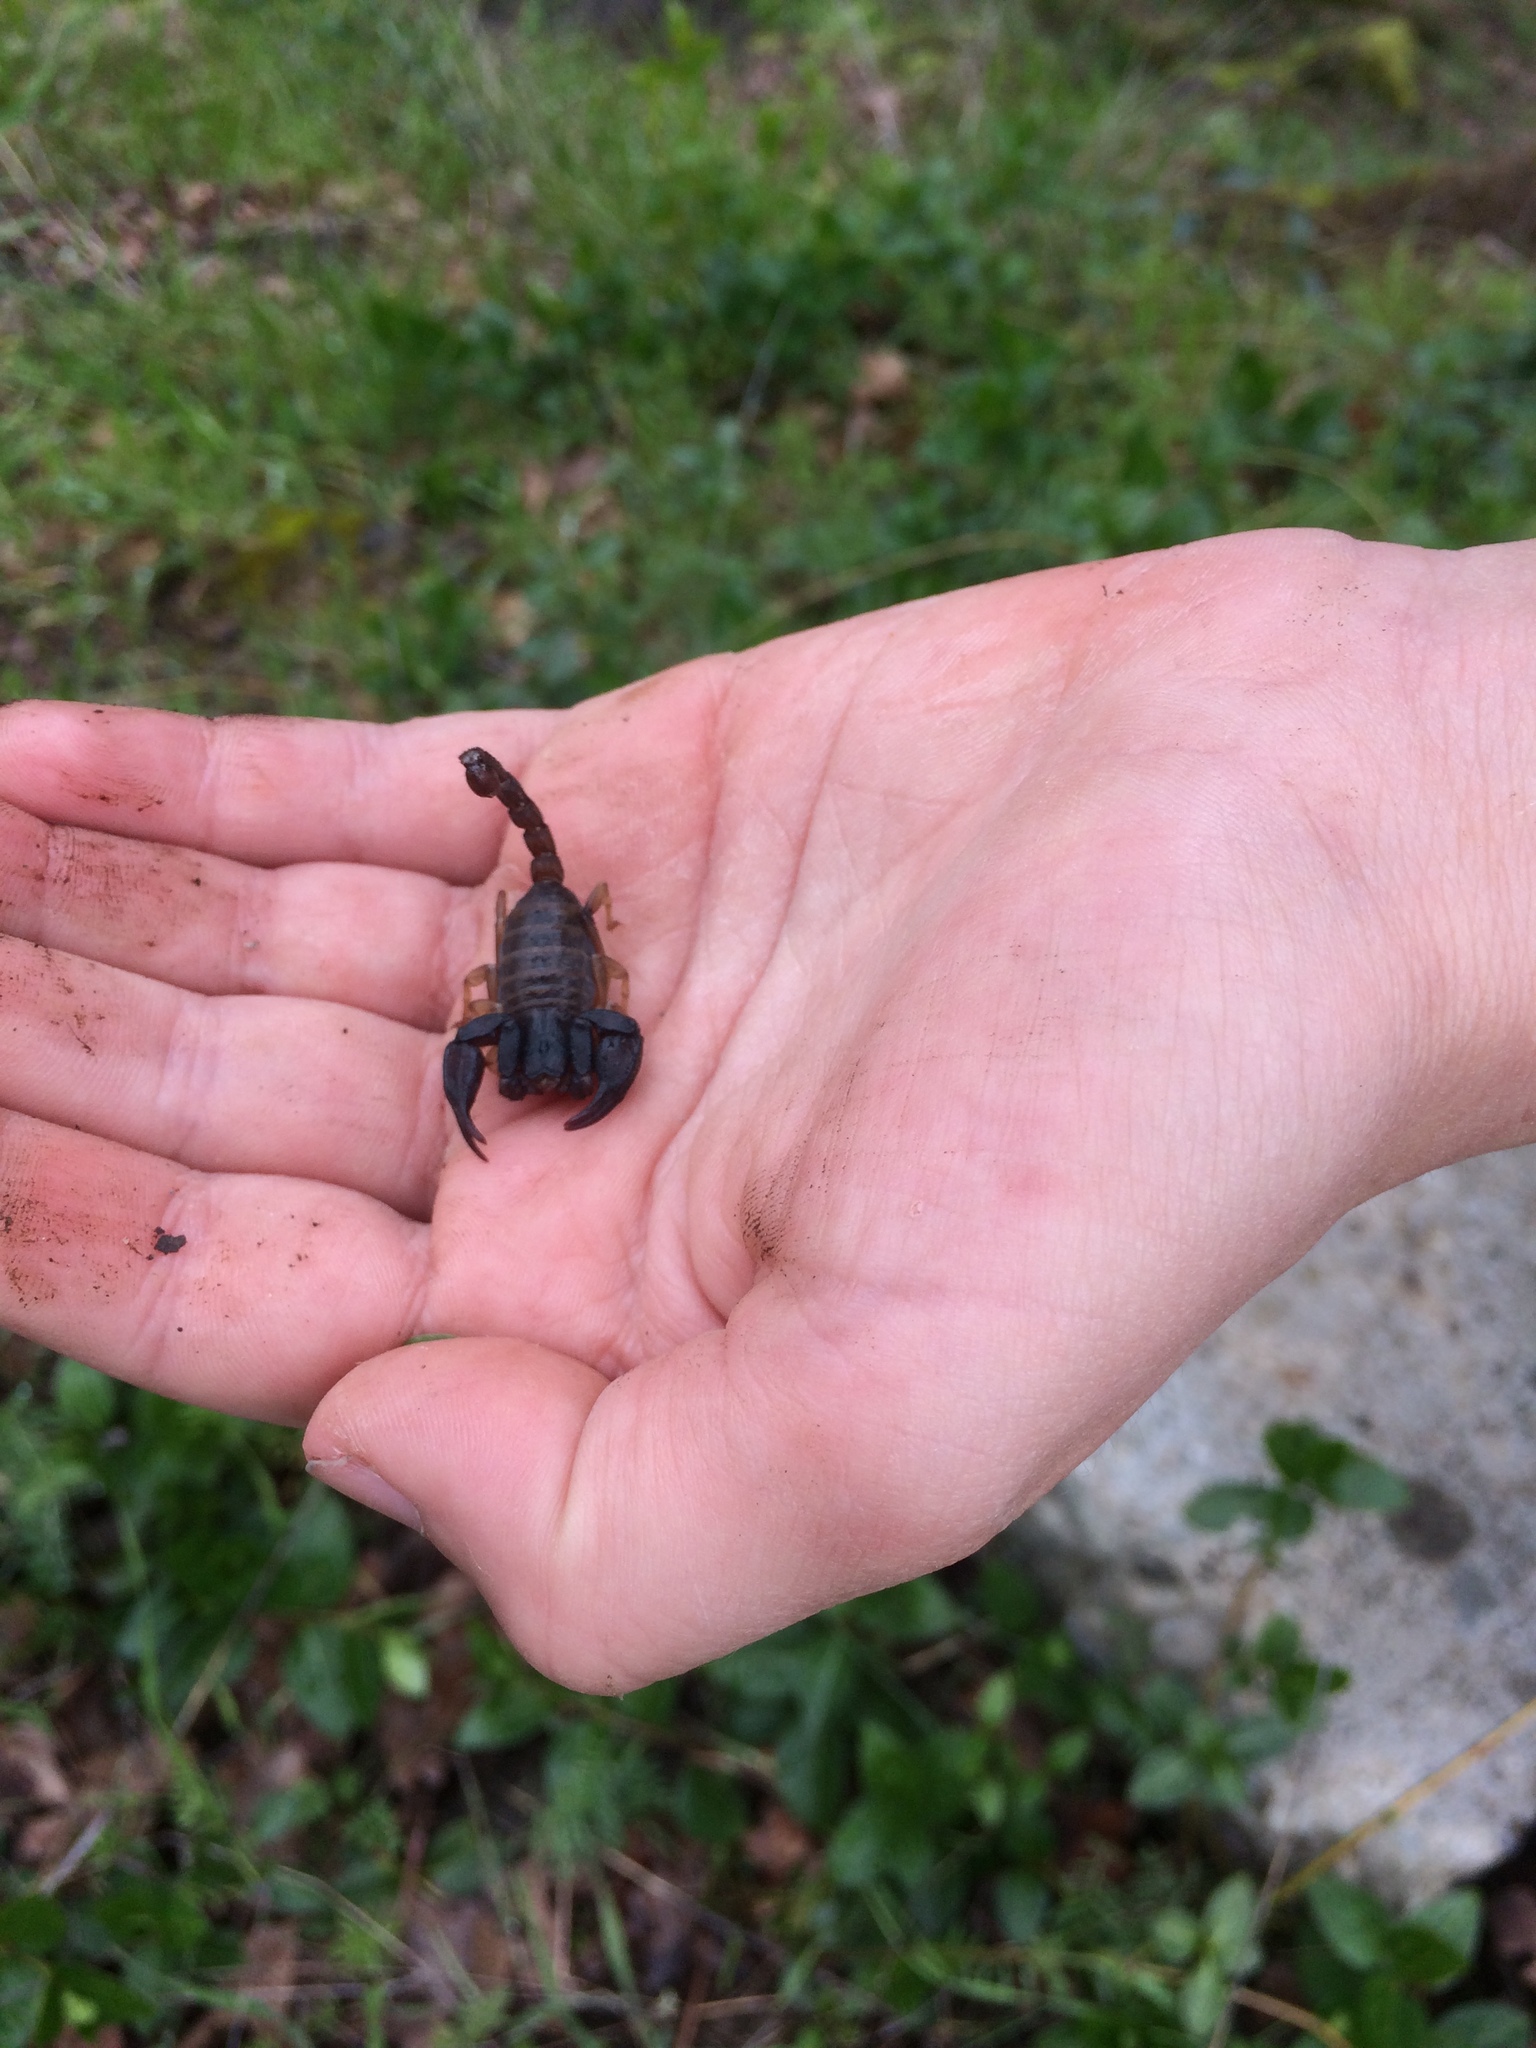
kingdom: Animalia
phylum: Arthropoda
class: Arachnida
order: Scorpiones
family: Chactidae
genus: Uroctonus
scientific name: Uroctonus mordax
